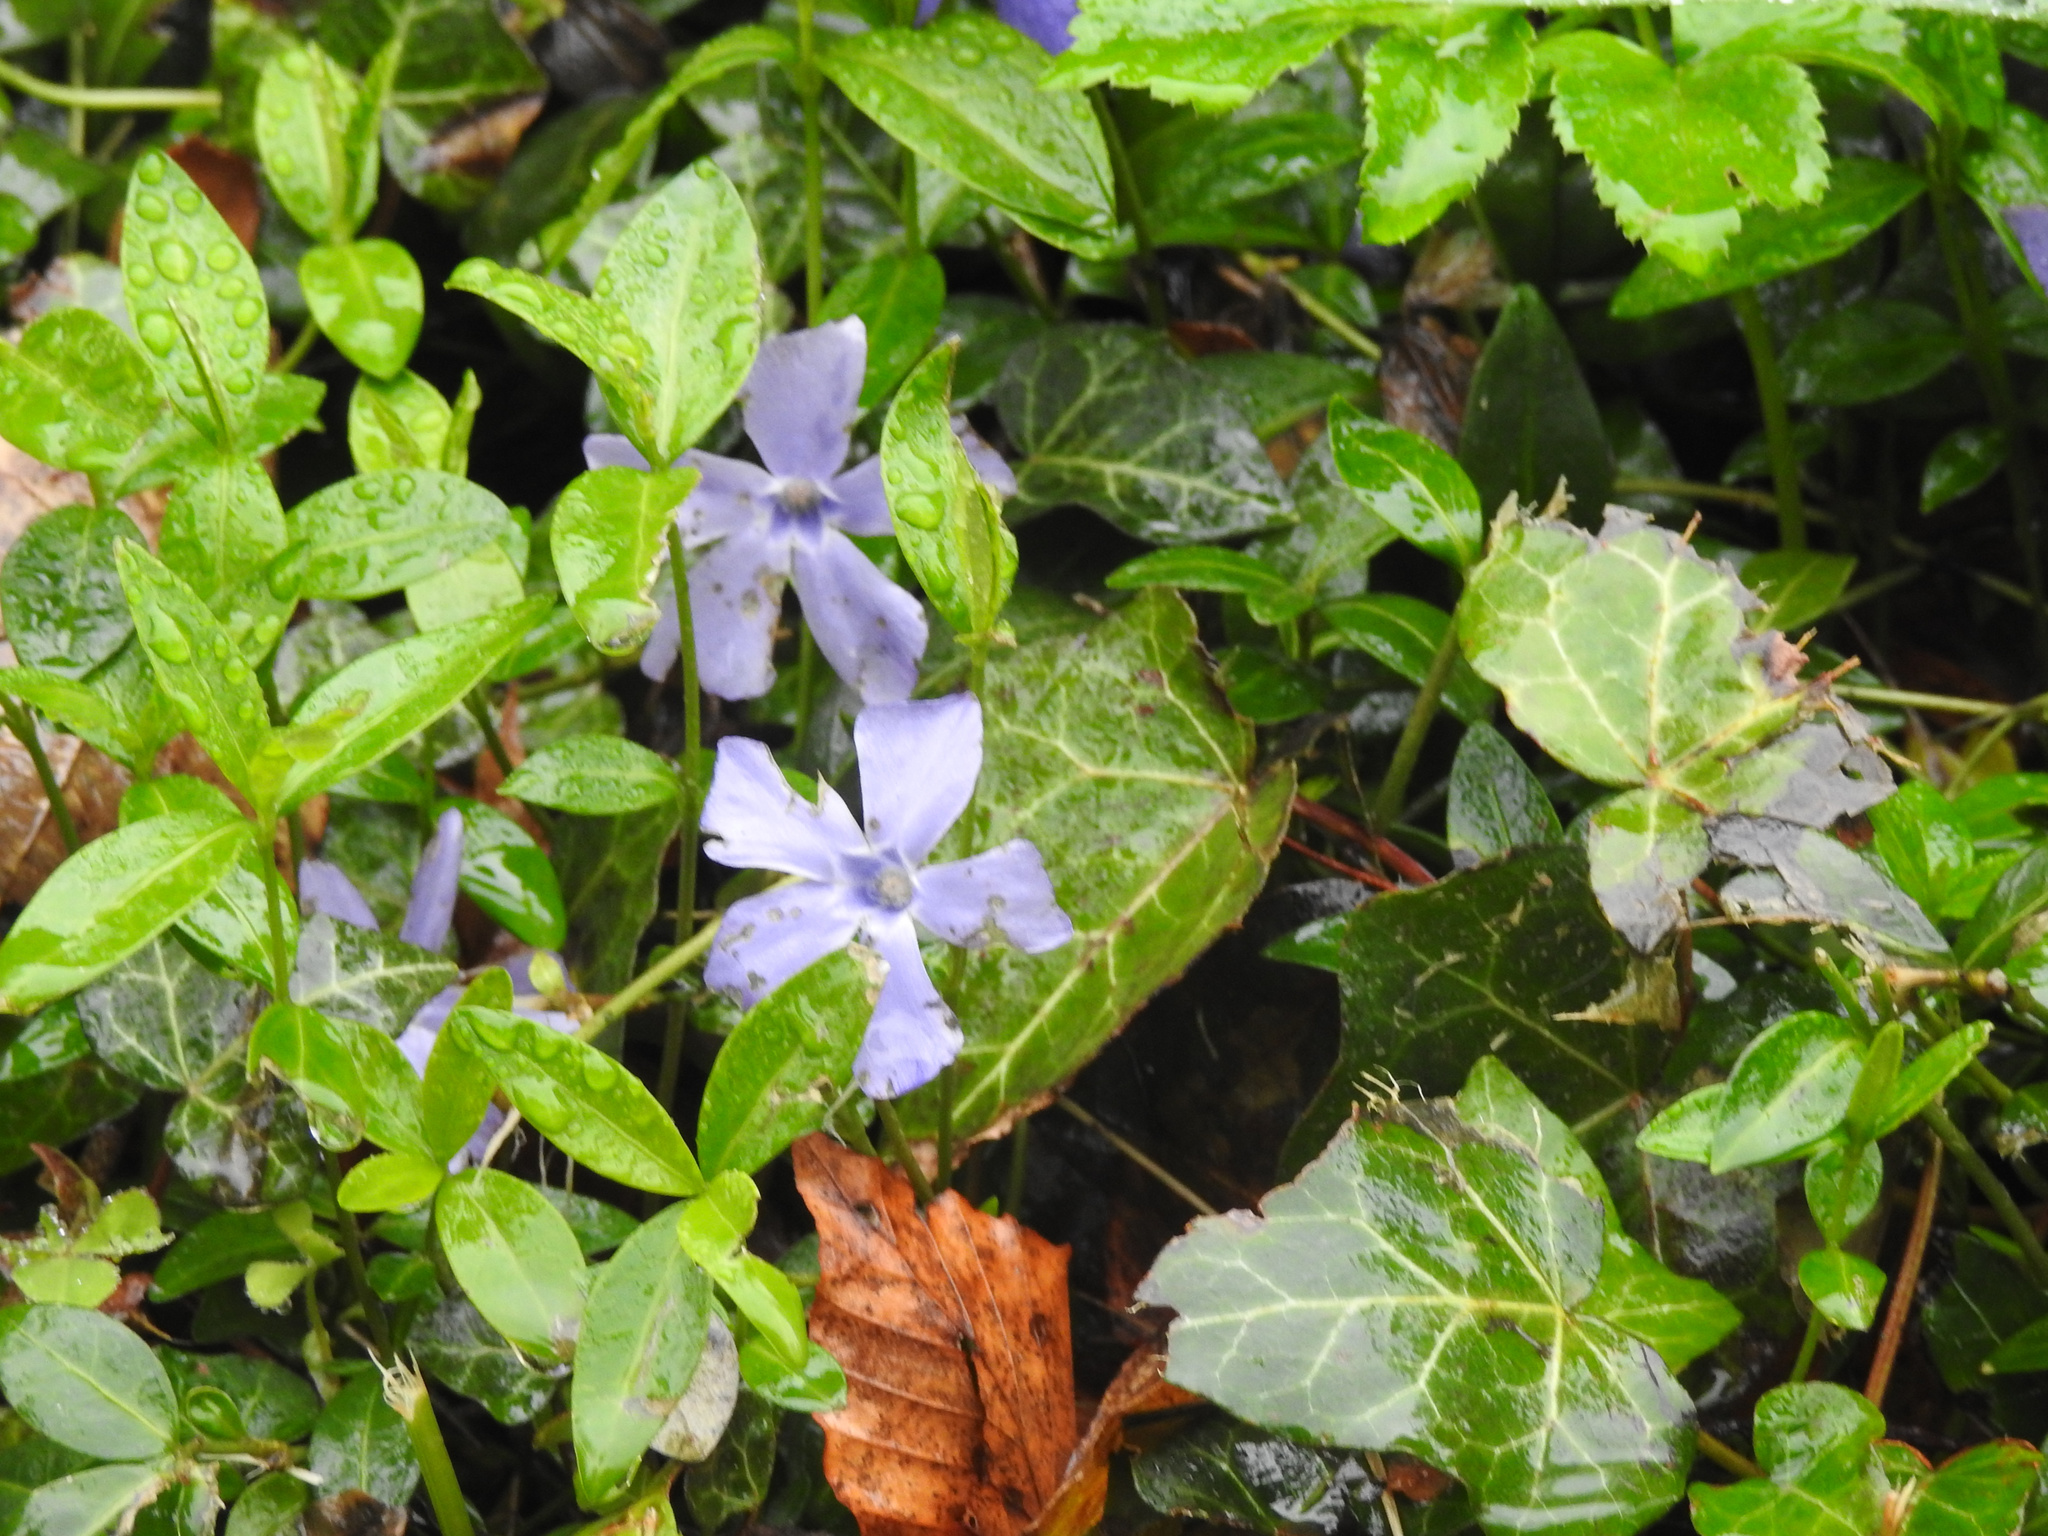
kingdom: Plantae
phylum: Tracheophyta
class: Magnoliopsida
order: Gentianales
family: Apocynaceae
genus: Vinca
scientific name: Vinca minor
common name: Lesser periwinkle
